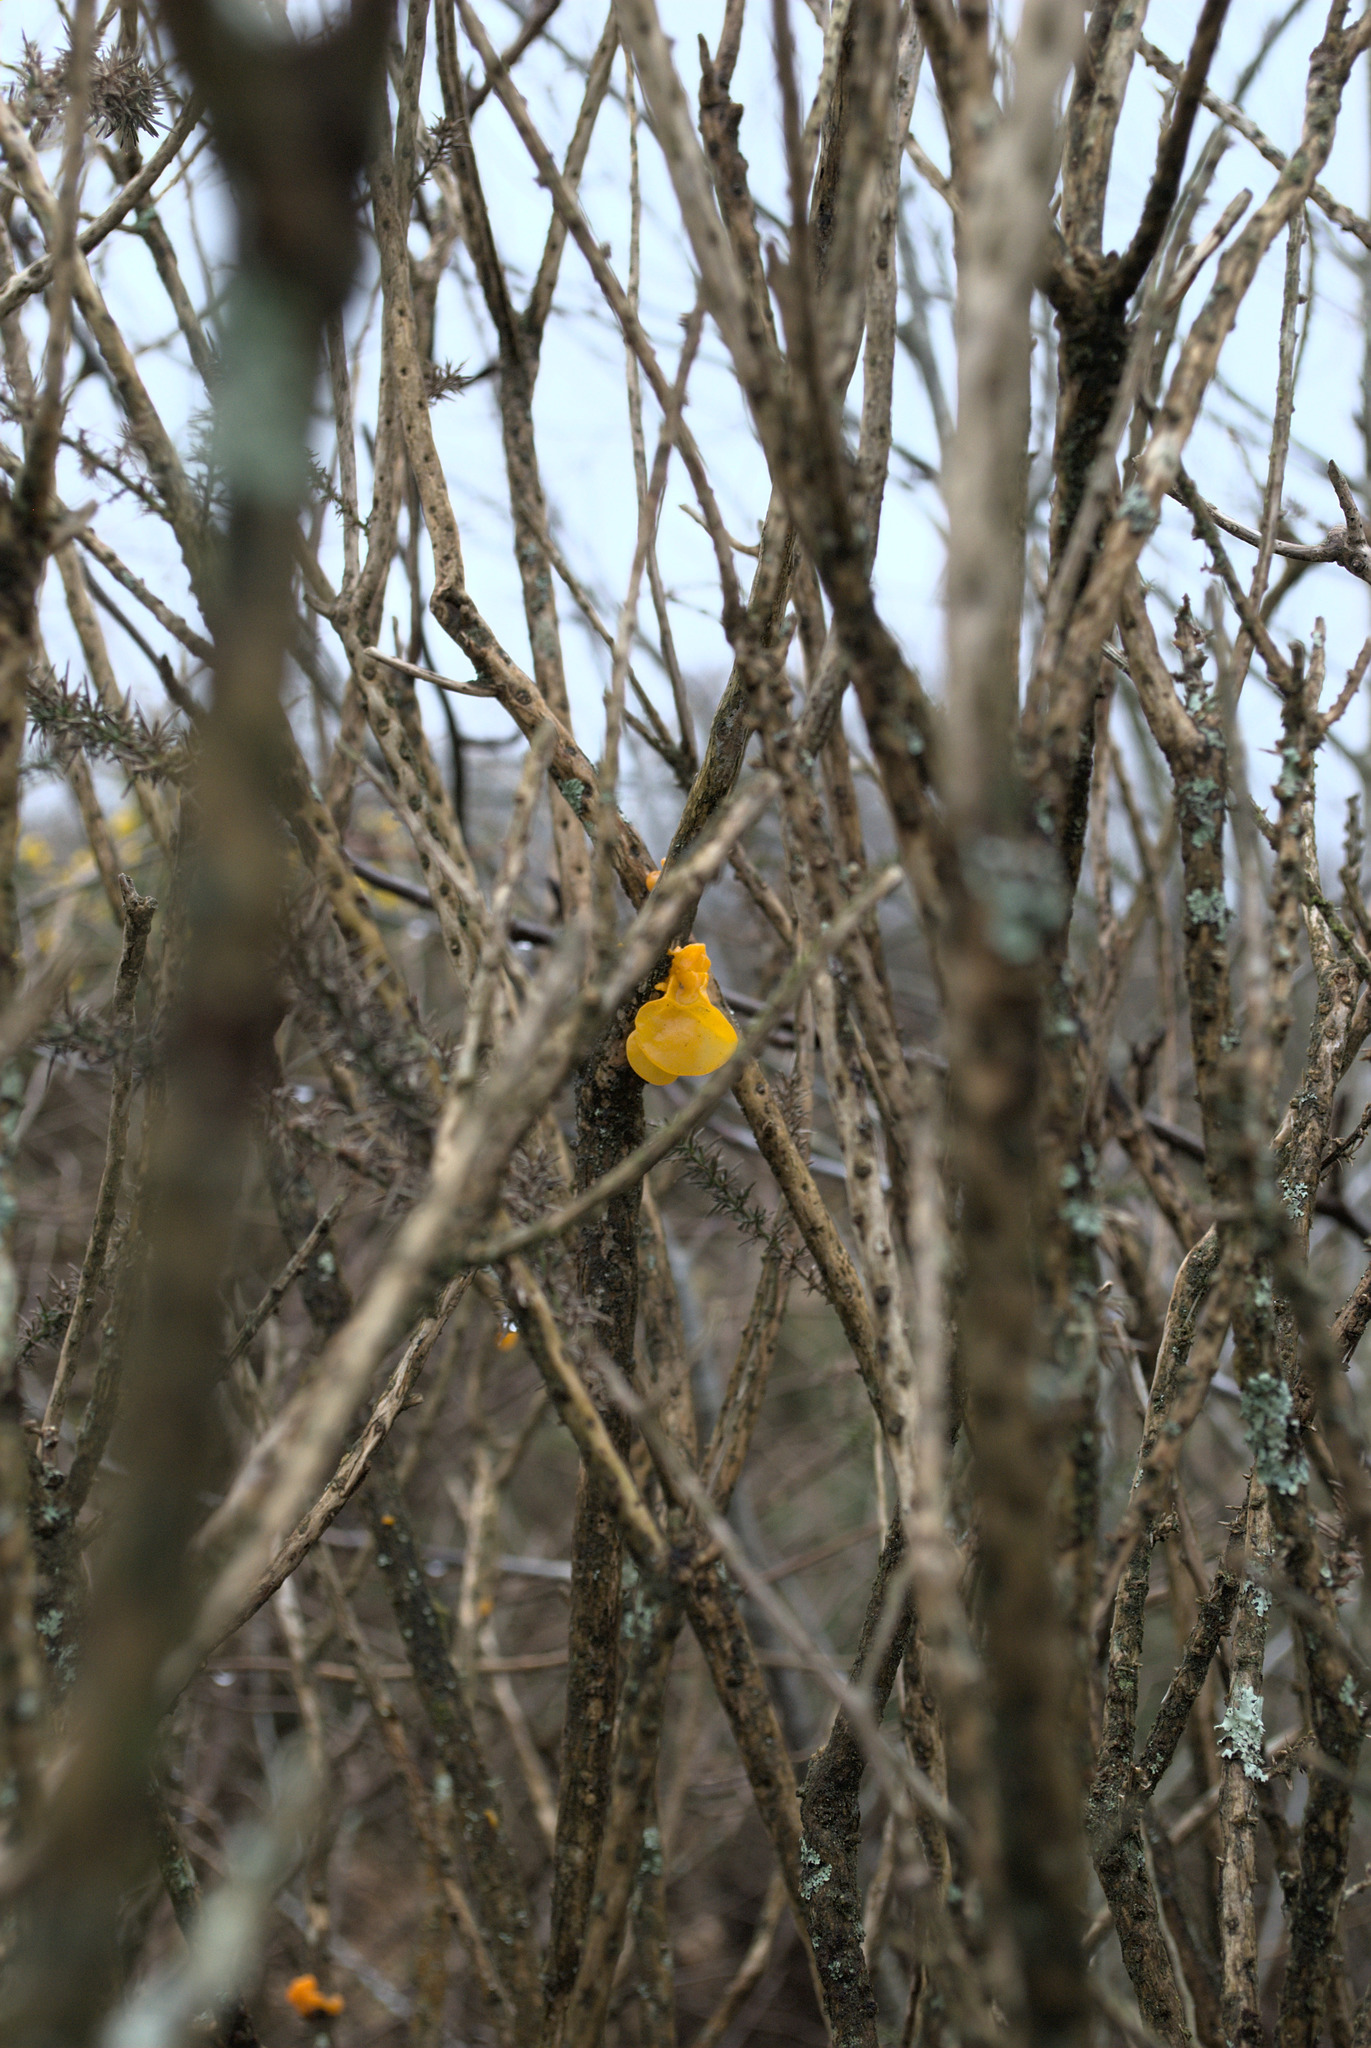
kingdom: Fungi
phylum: Basidiomycota
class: Tremellomycetes
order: Tremellales
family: Tremellaceae
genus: Tremella
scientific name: Tremella mesenterica
